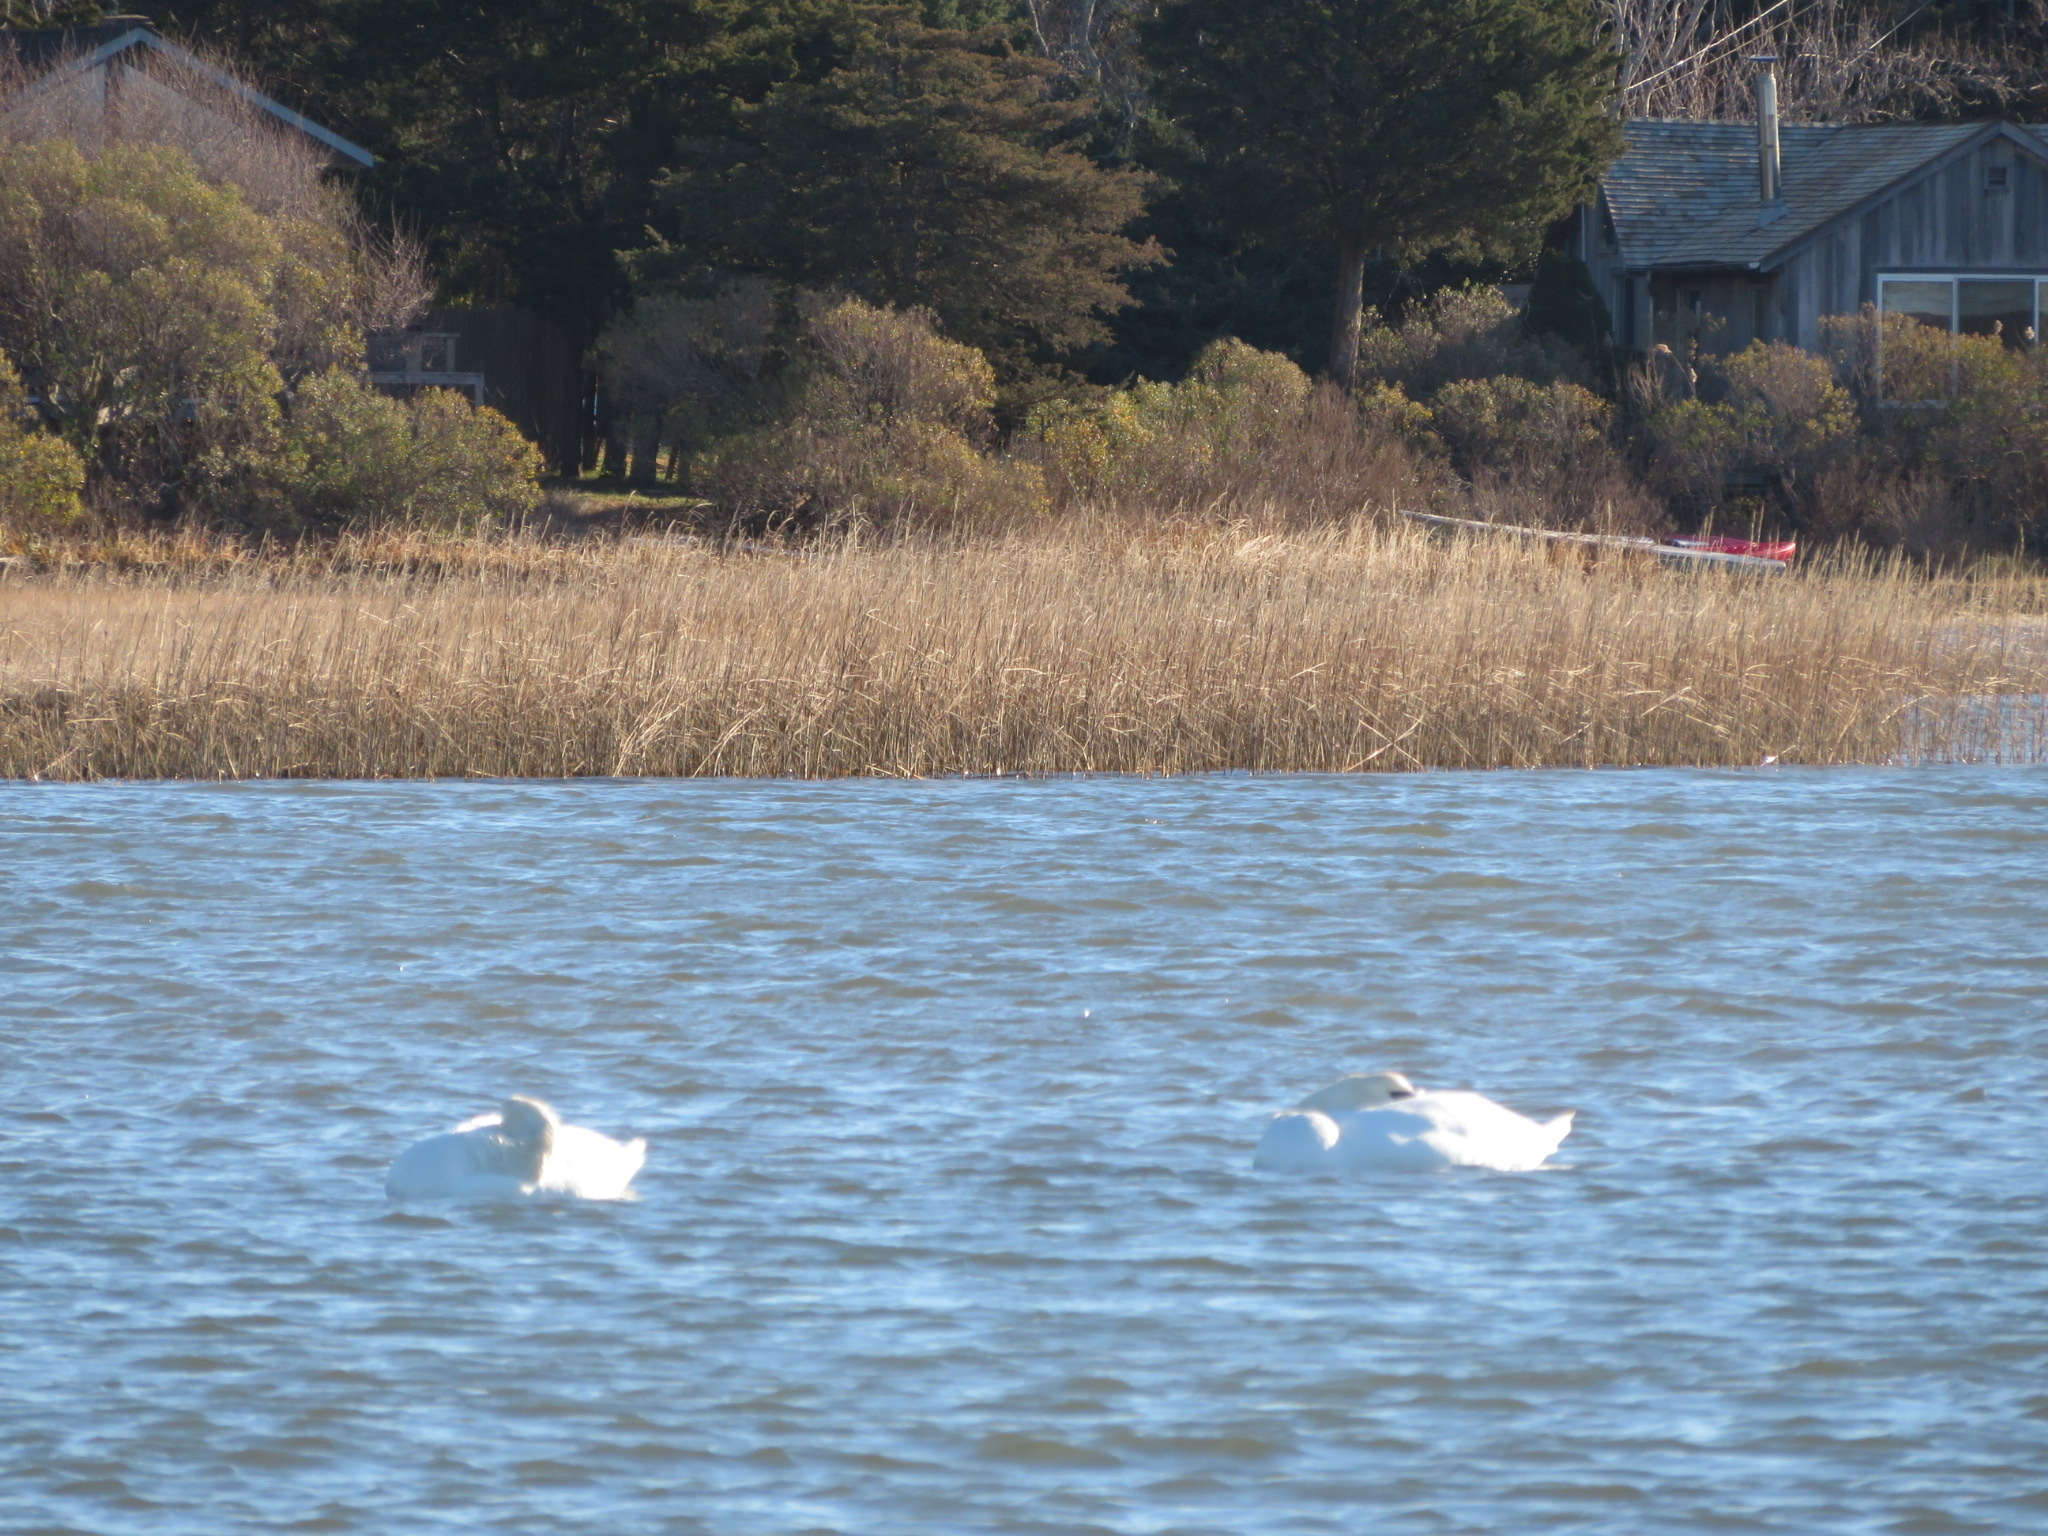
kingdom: Animalia
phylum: Chordata
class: Aves
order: Anseriformes
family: Anatidae
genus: Cygnus
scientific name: Cygnus olor
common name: Mute swan
